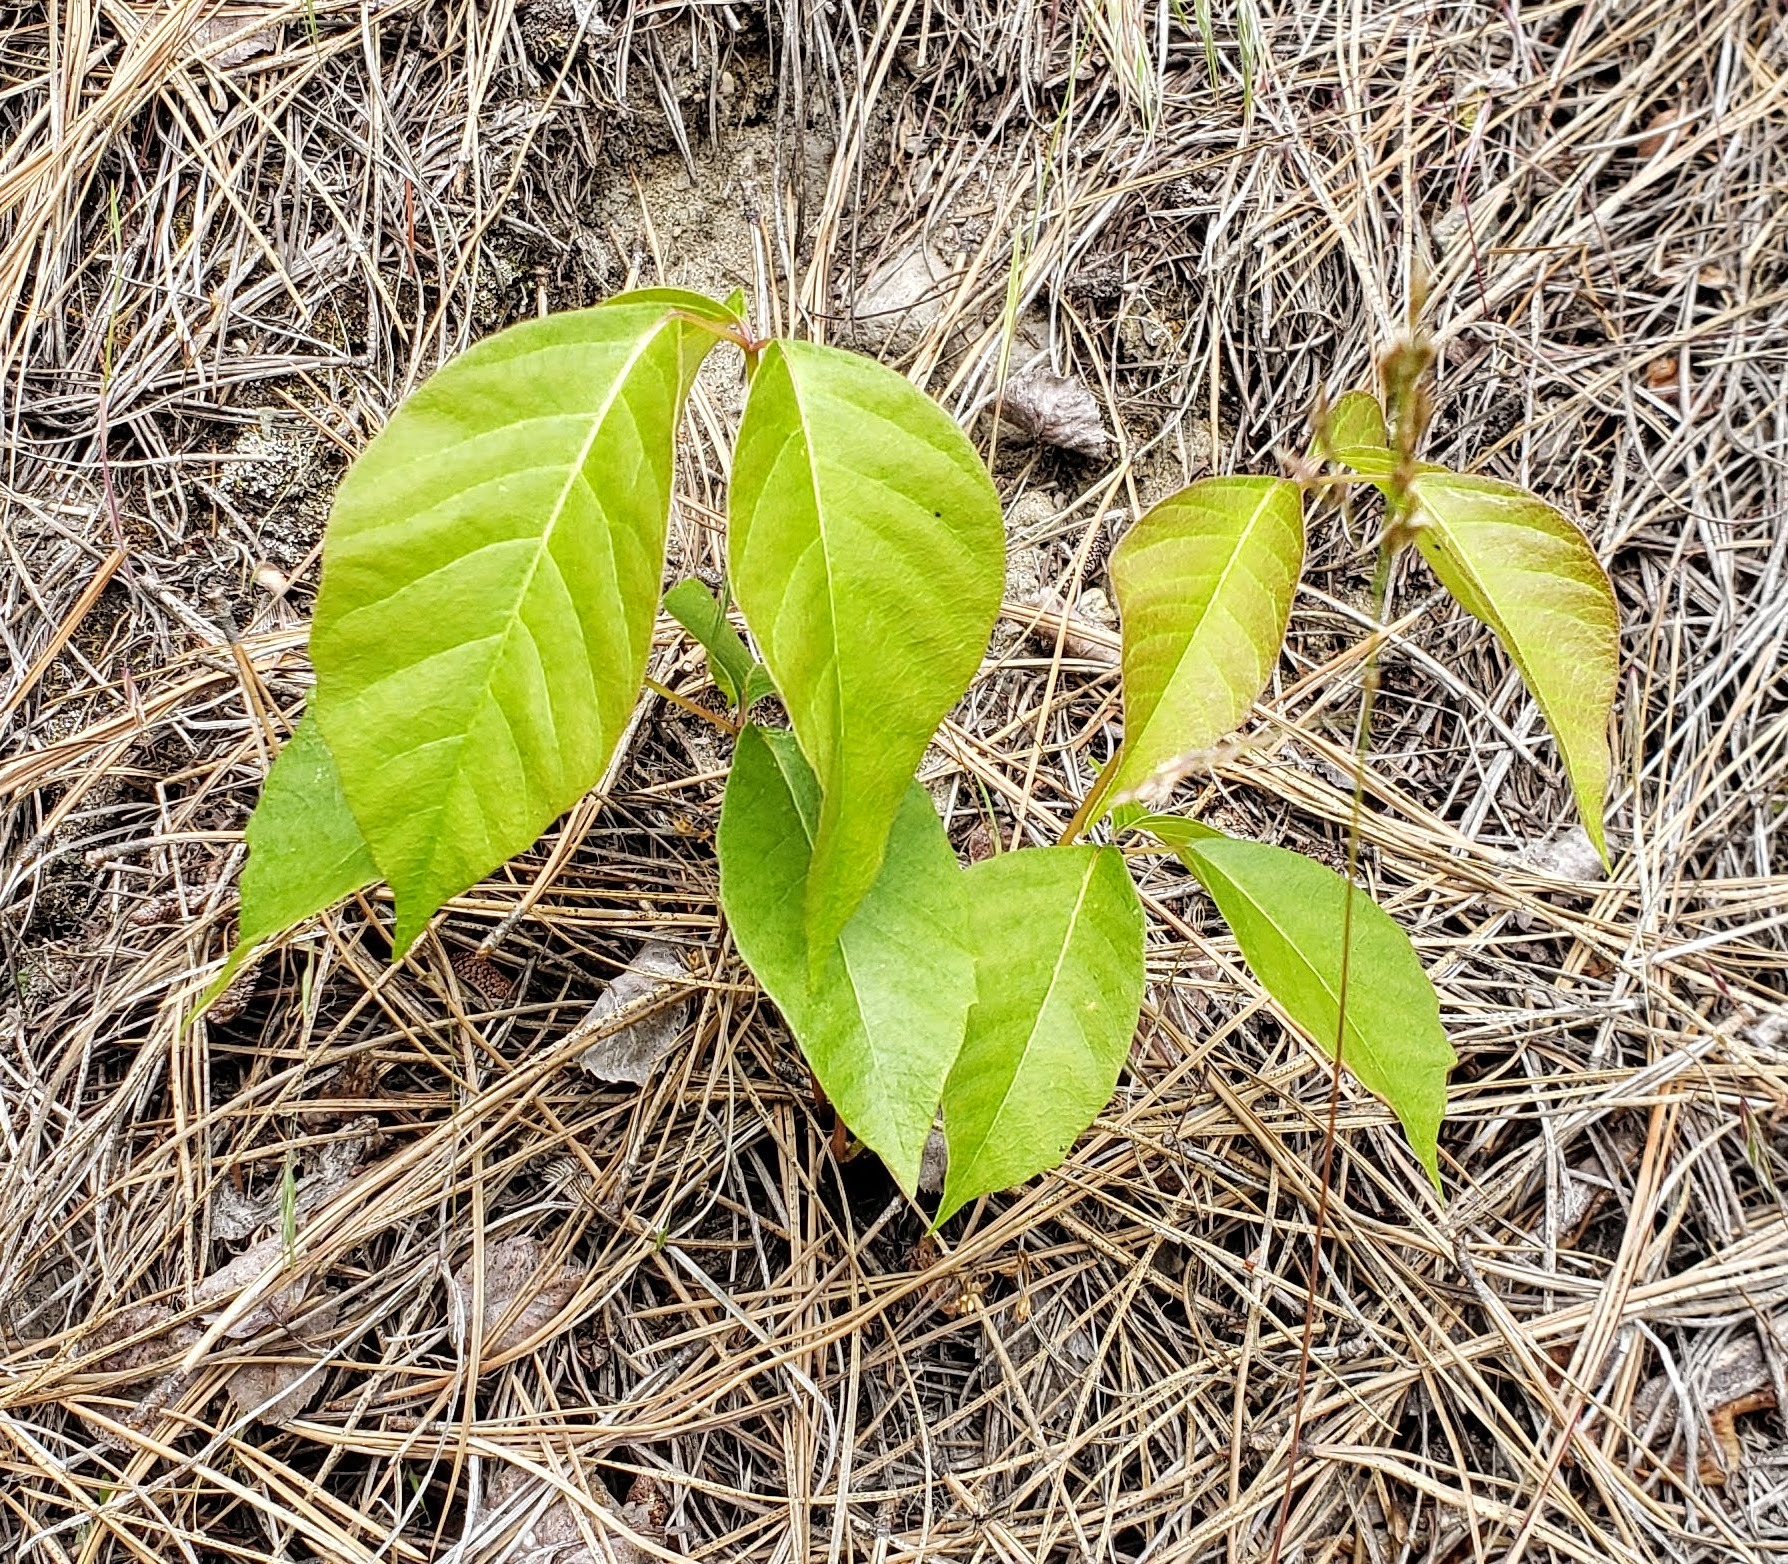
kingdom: Plantae
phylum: Tracheophyta
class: Magnoliopsida
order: Sapindales
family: Anacardiaceae
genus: Toxicodendron
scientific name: Toxicodendron rydbergii
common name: Rydberg's poison-ivy
